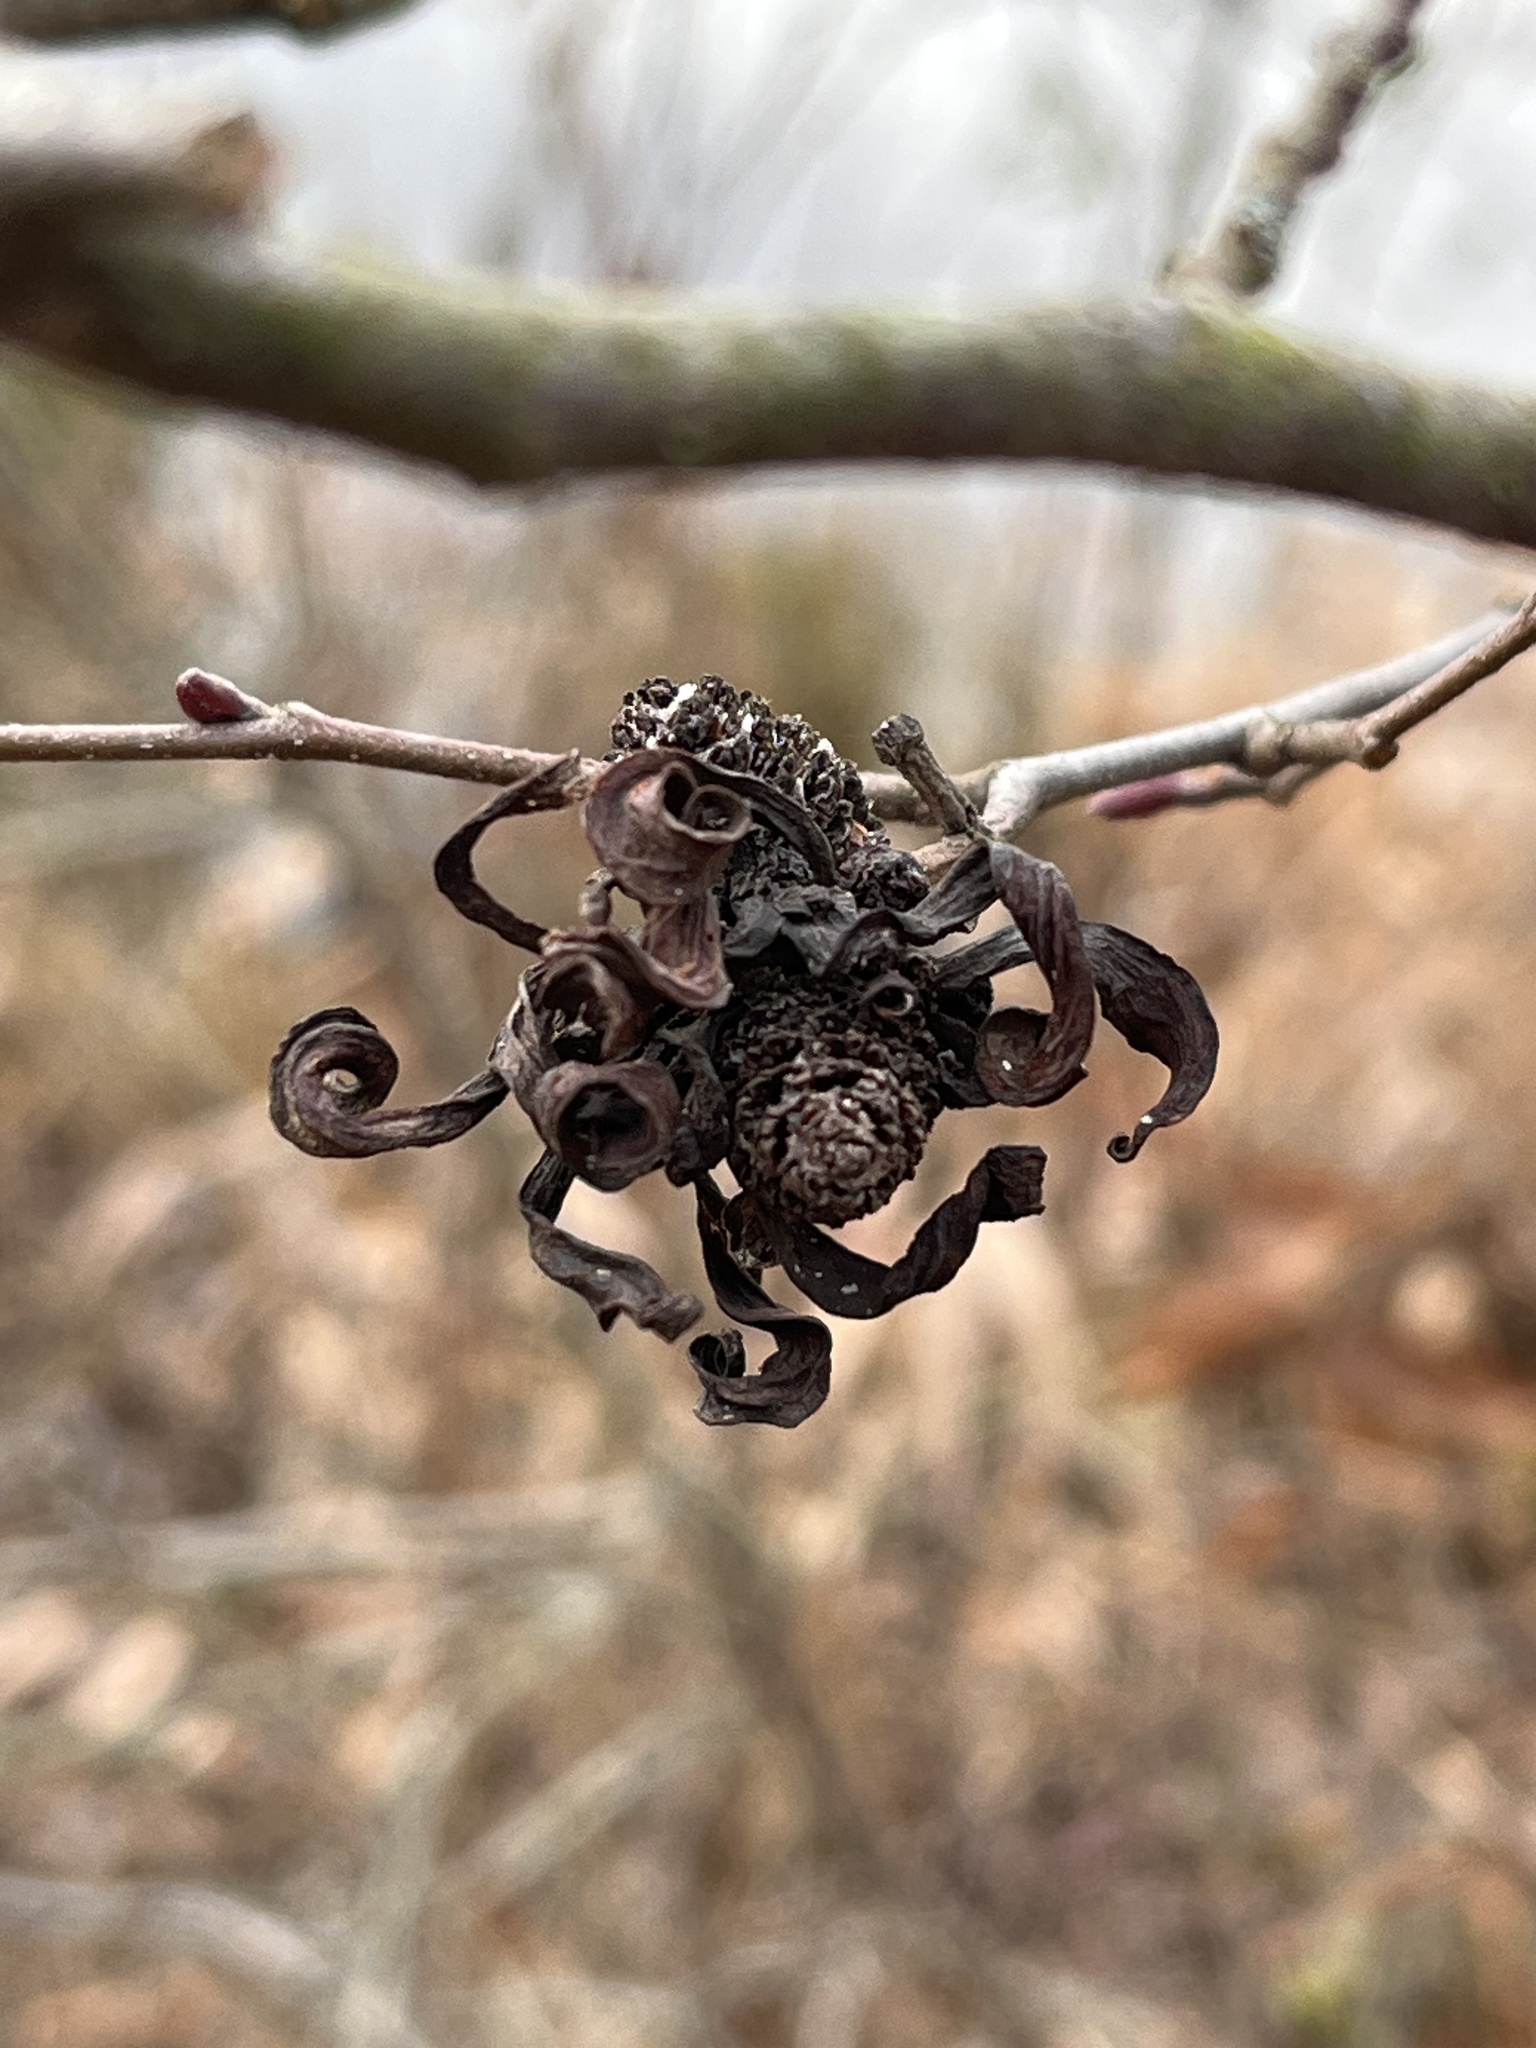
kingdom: Fungi
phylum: Ascomycota
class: Taphrinomycetes
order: Taphrinales
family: Taphrinaceae
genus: Taphrina
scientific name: Taphrina robinsoniana
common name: Eastern american alder tongue gall fungus
